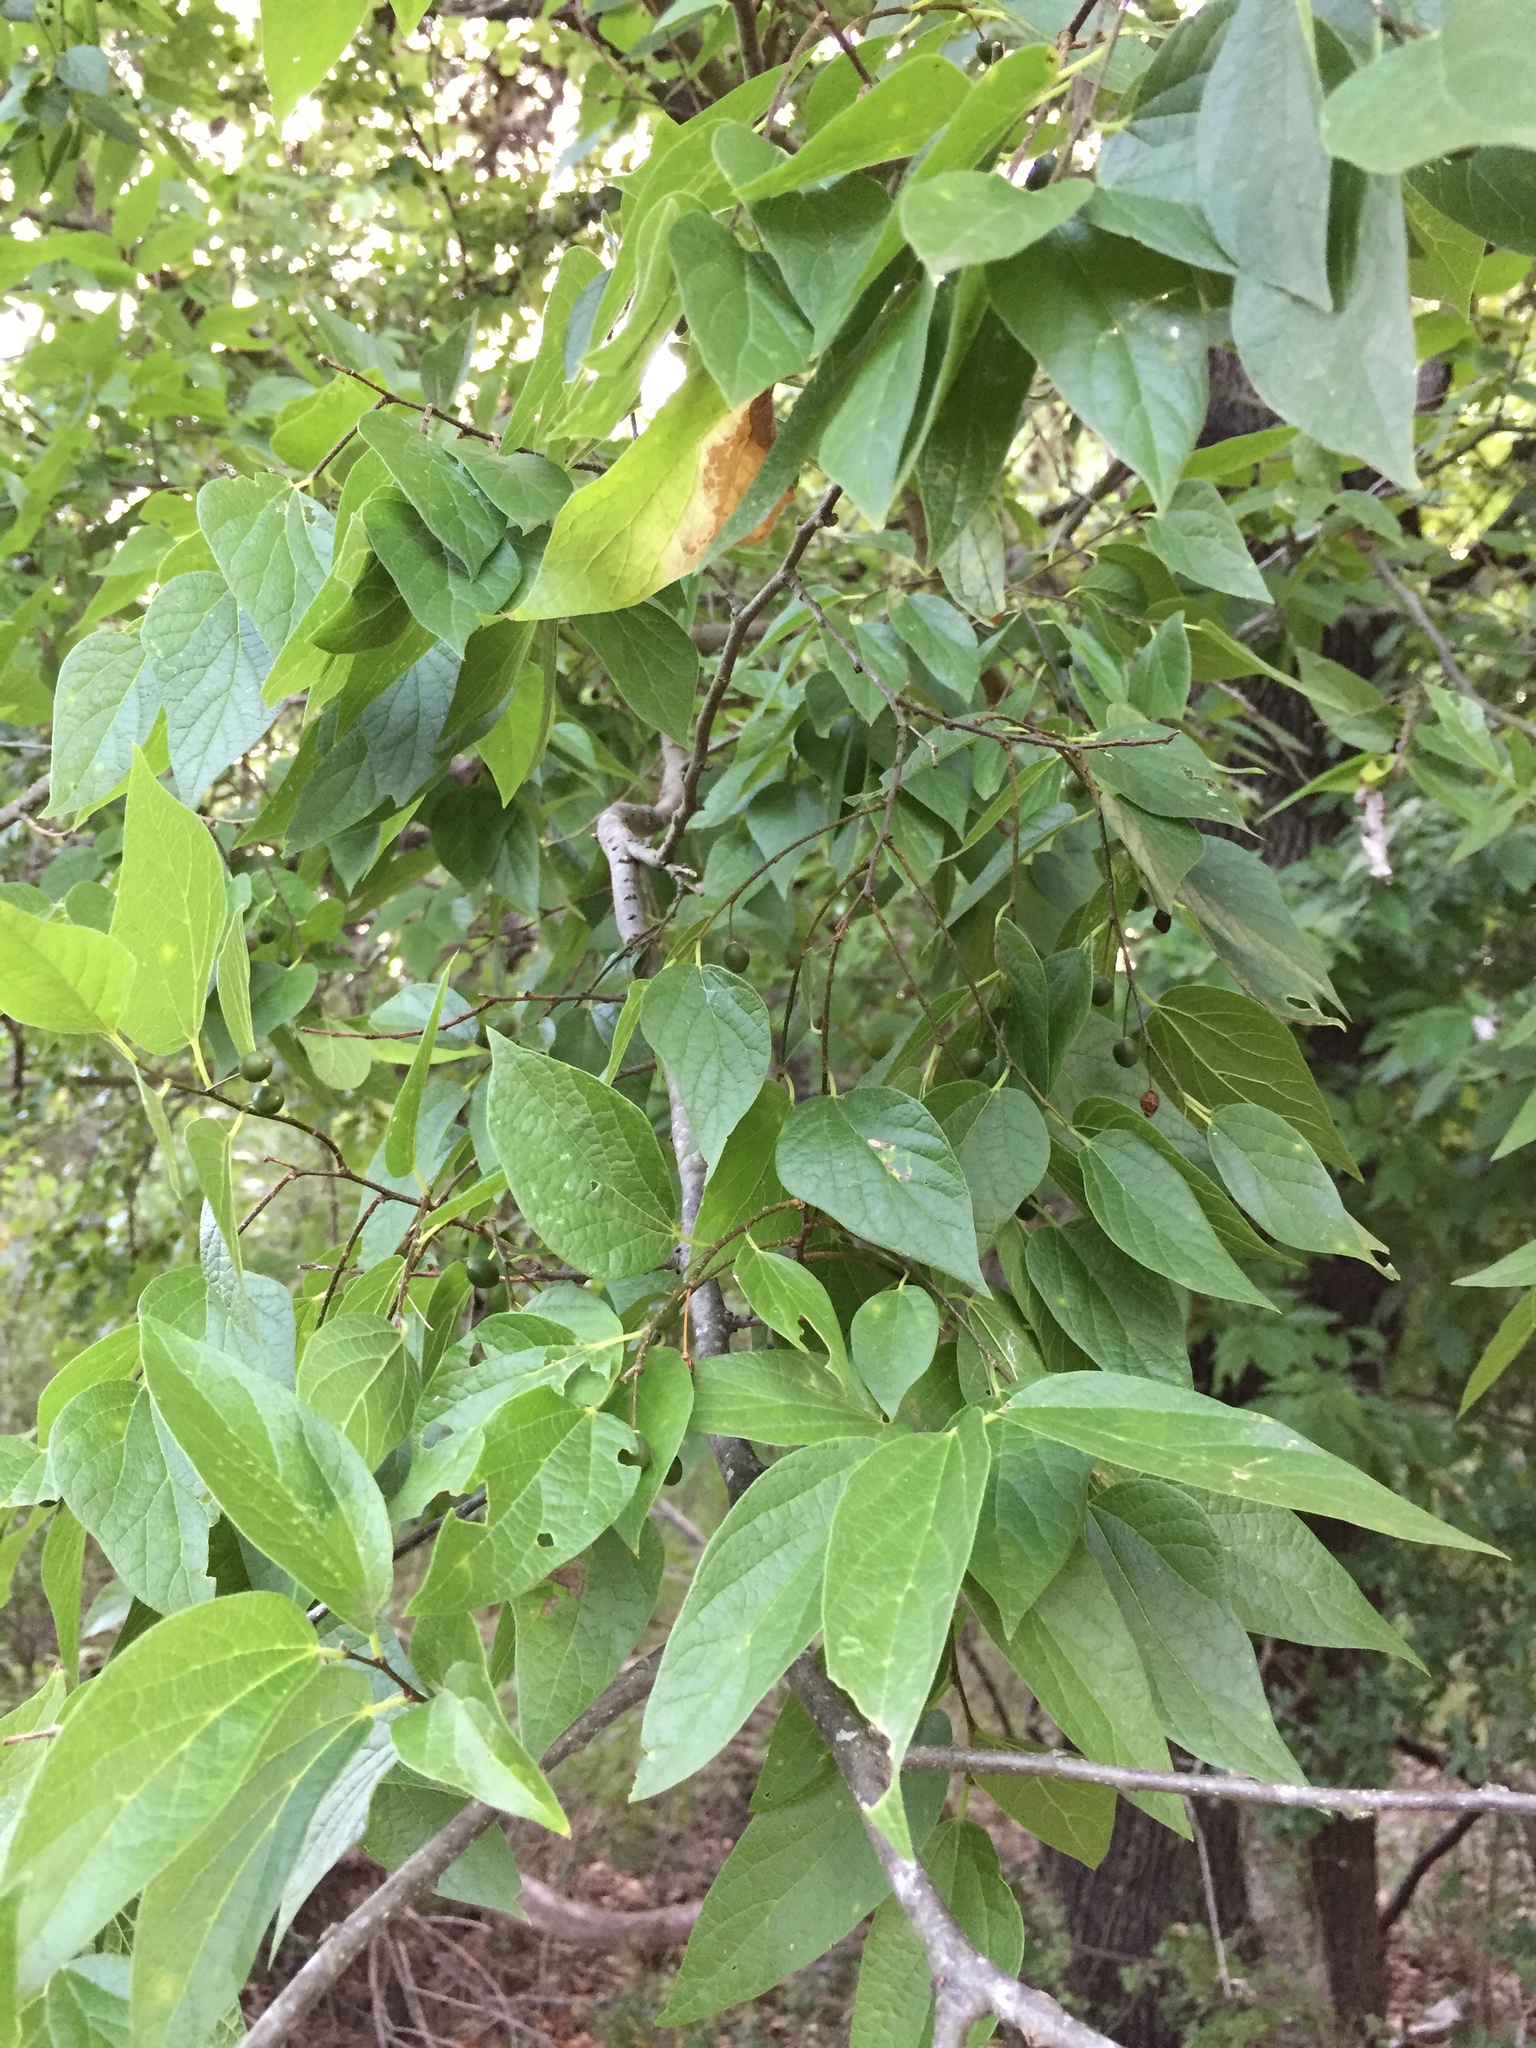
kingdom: Plantae
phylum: Tracheophyta
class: Magnoliopsida
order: Rosales
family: Cannabaceae
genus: Celtis
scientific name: Celtis laevigata
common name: Sugarberry
